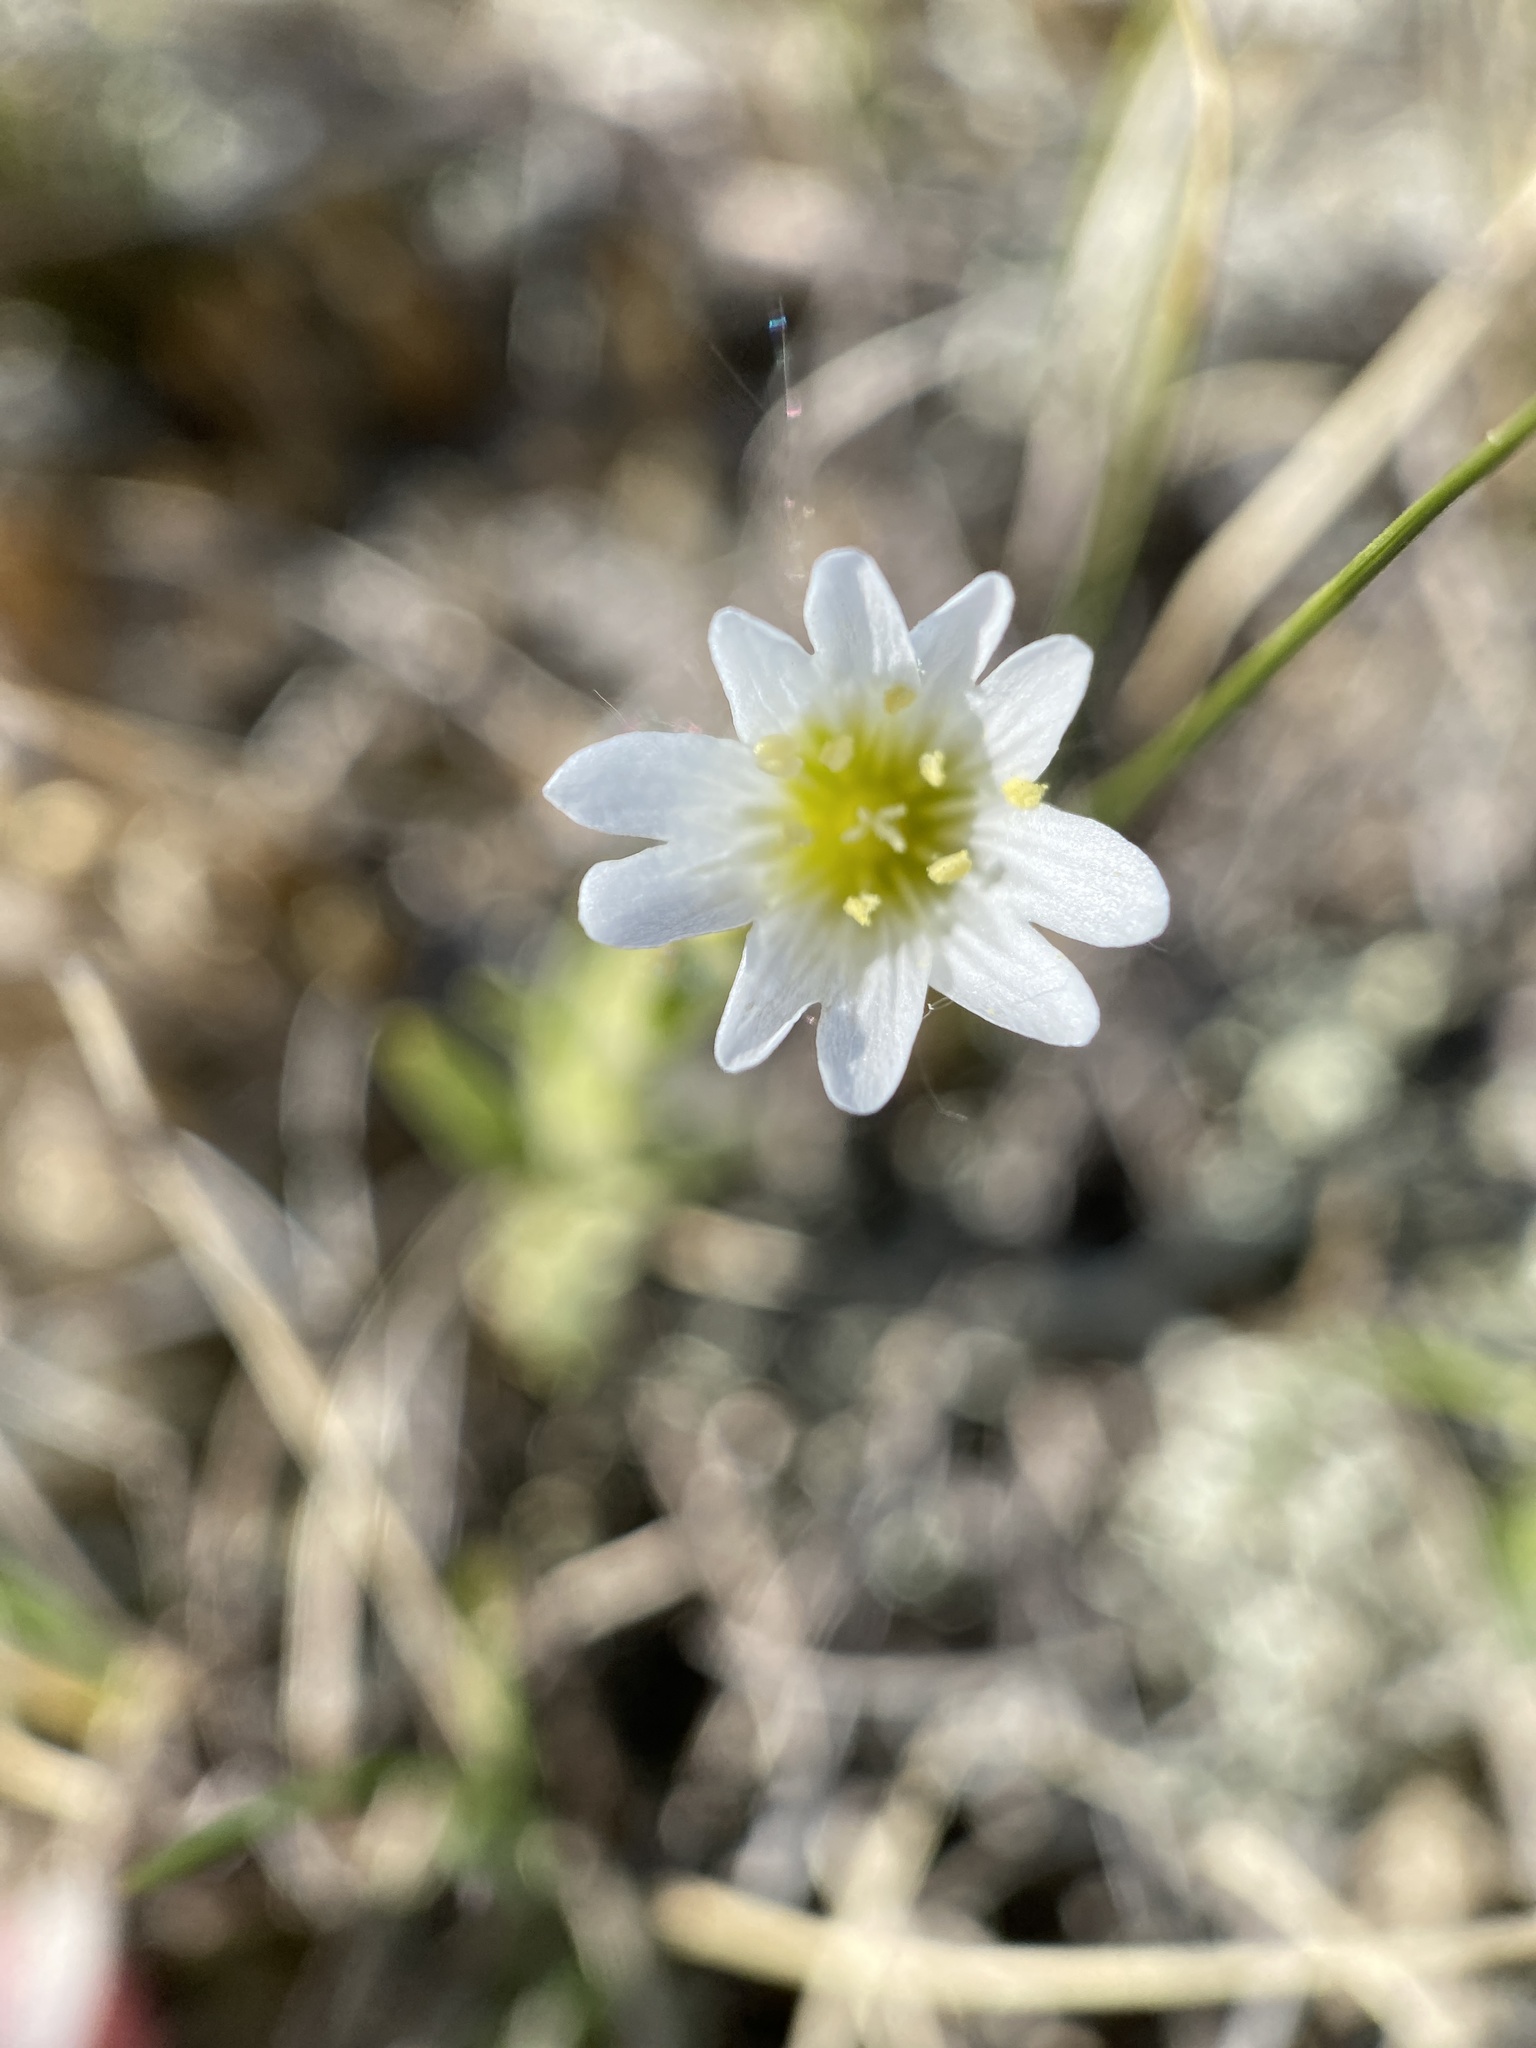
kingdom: Plantae
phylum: Tracheophyta
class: Magnoliopsida
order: Caryophyllales
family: Caryophyllaceae
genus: Cerastium
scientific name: Cerastium arvense
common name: Field mouse-ear
